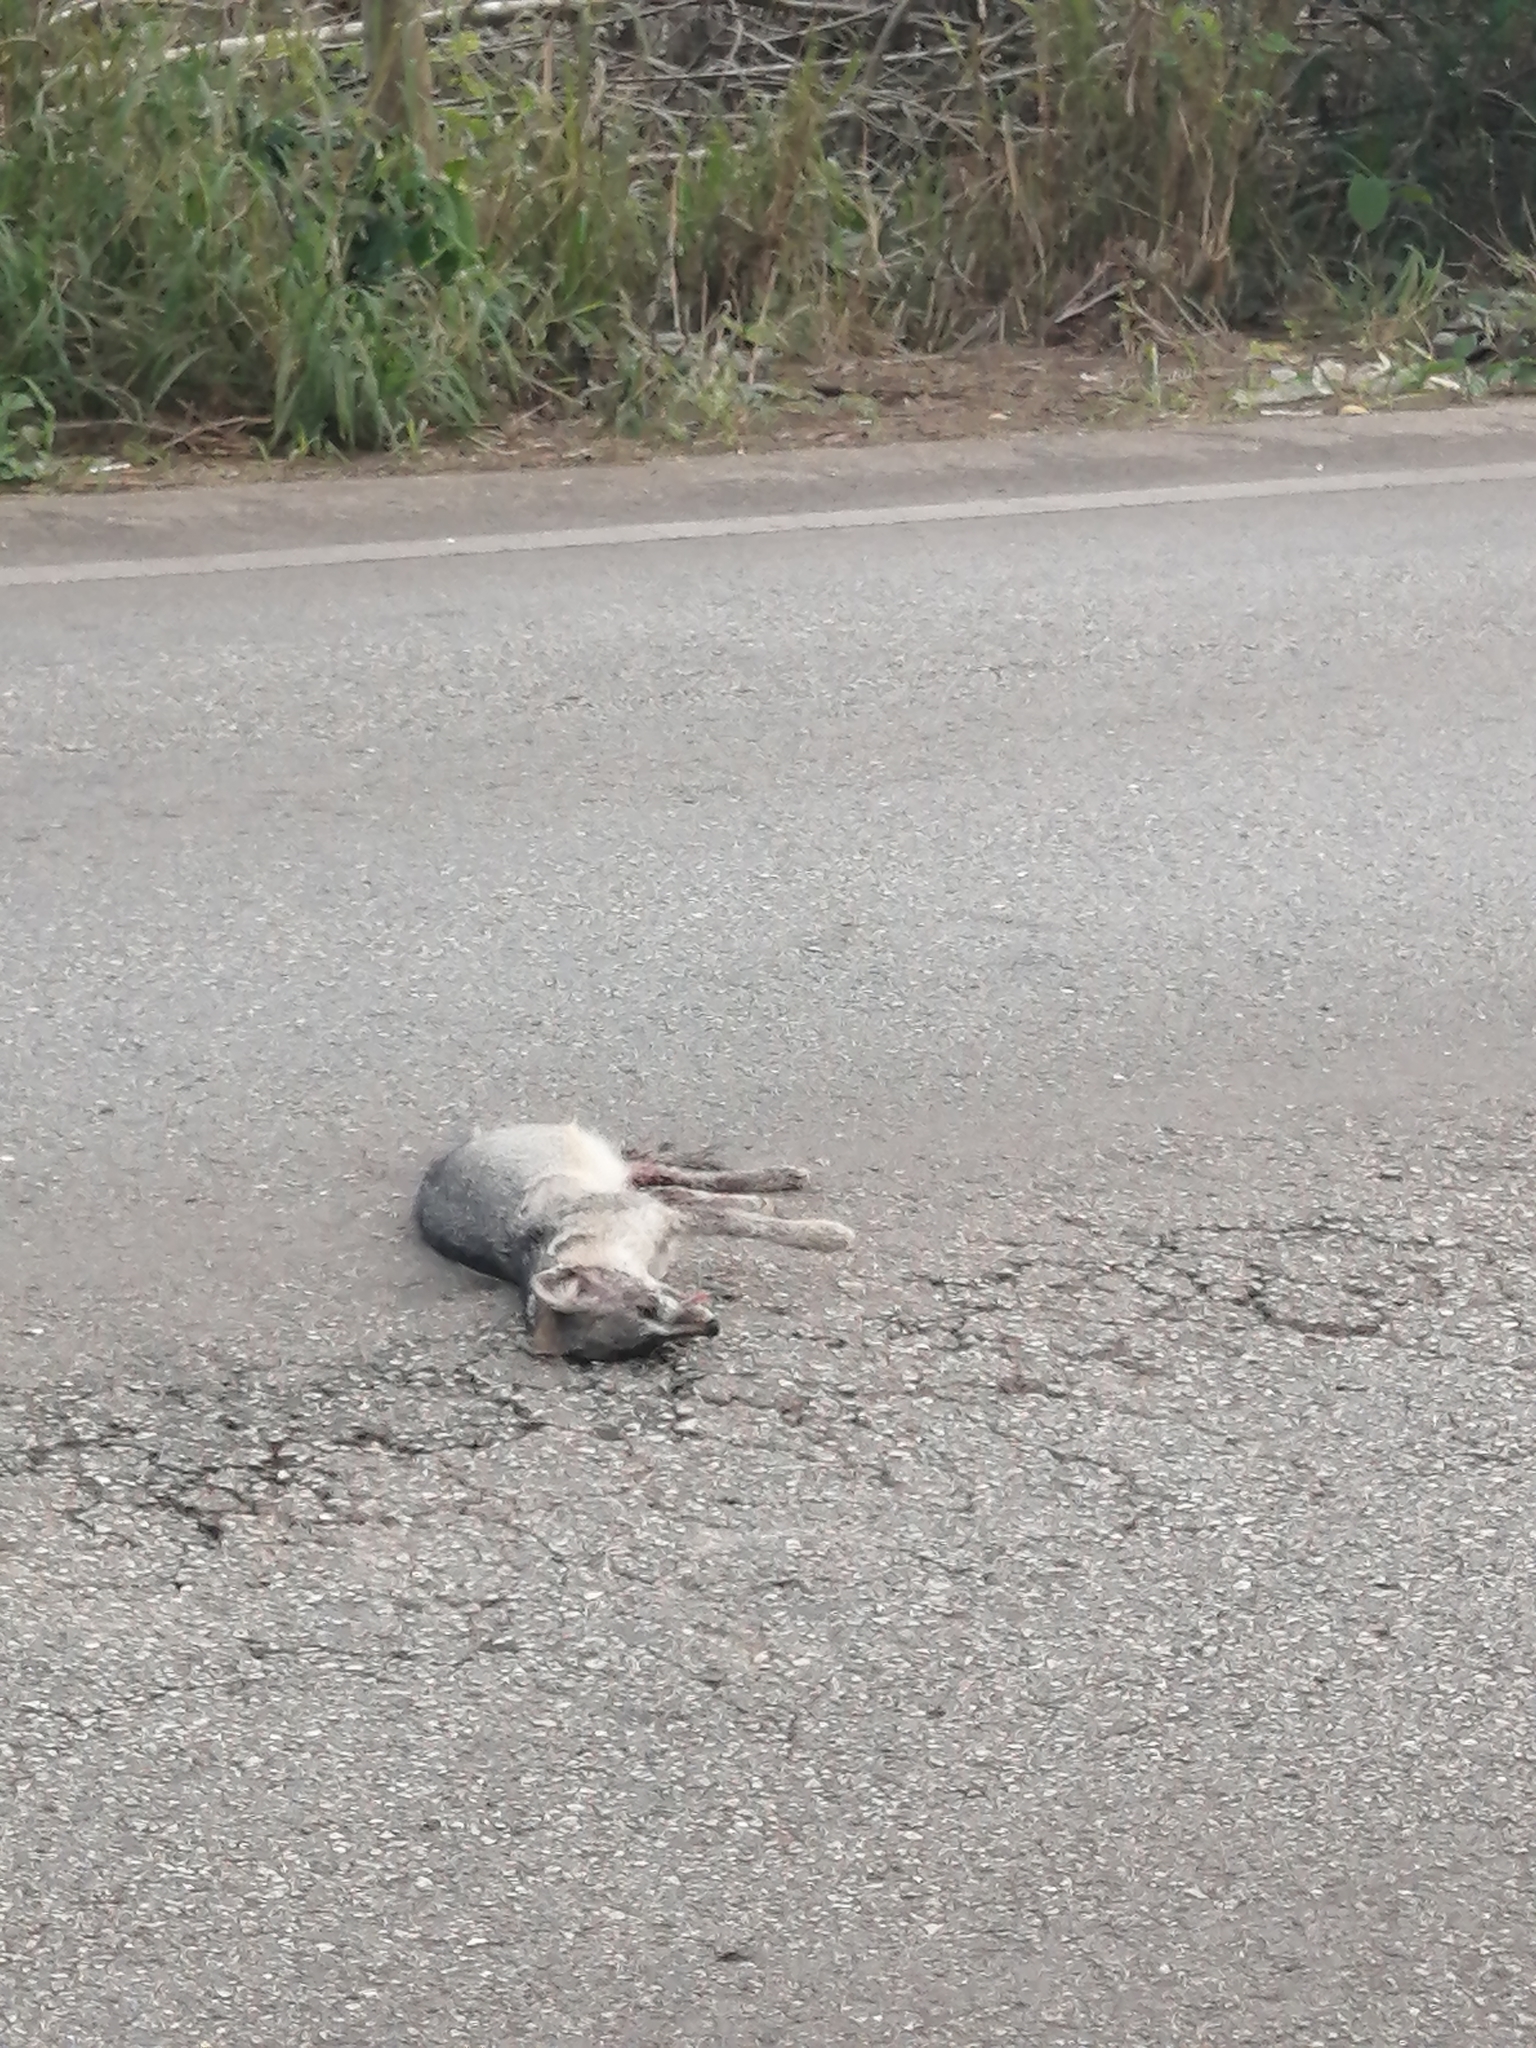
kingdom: Animalia
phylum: Chordata
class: Mammalia
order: Carnivora
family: Canidae
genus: Urocyon
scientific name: Urocyon cinereoargenteus
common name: Gray fox
